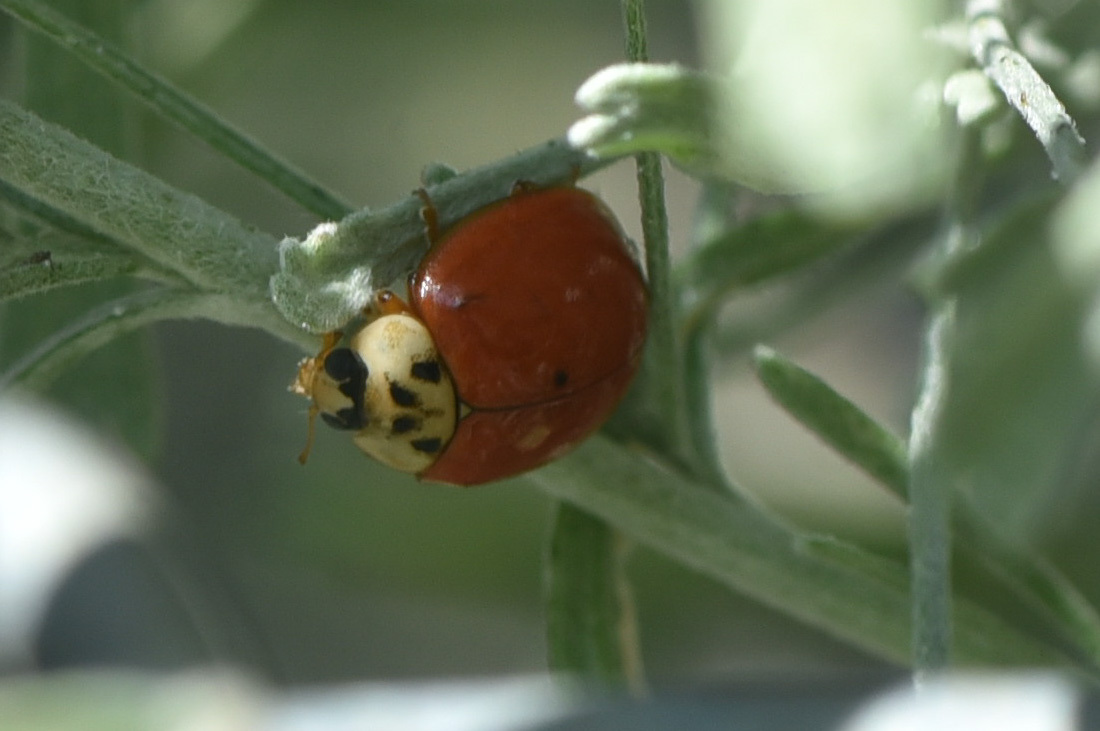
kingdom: Animalia
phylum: Arthropoda
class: Insecta
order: Coleoptera
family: Coccinellidae
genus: Harmonia
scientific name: Harmonia axyridis
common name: Harlequin ladybird
